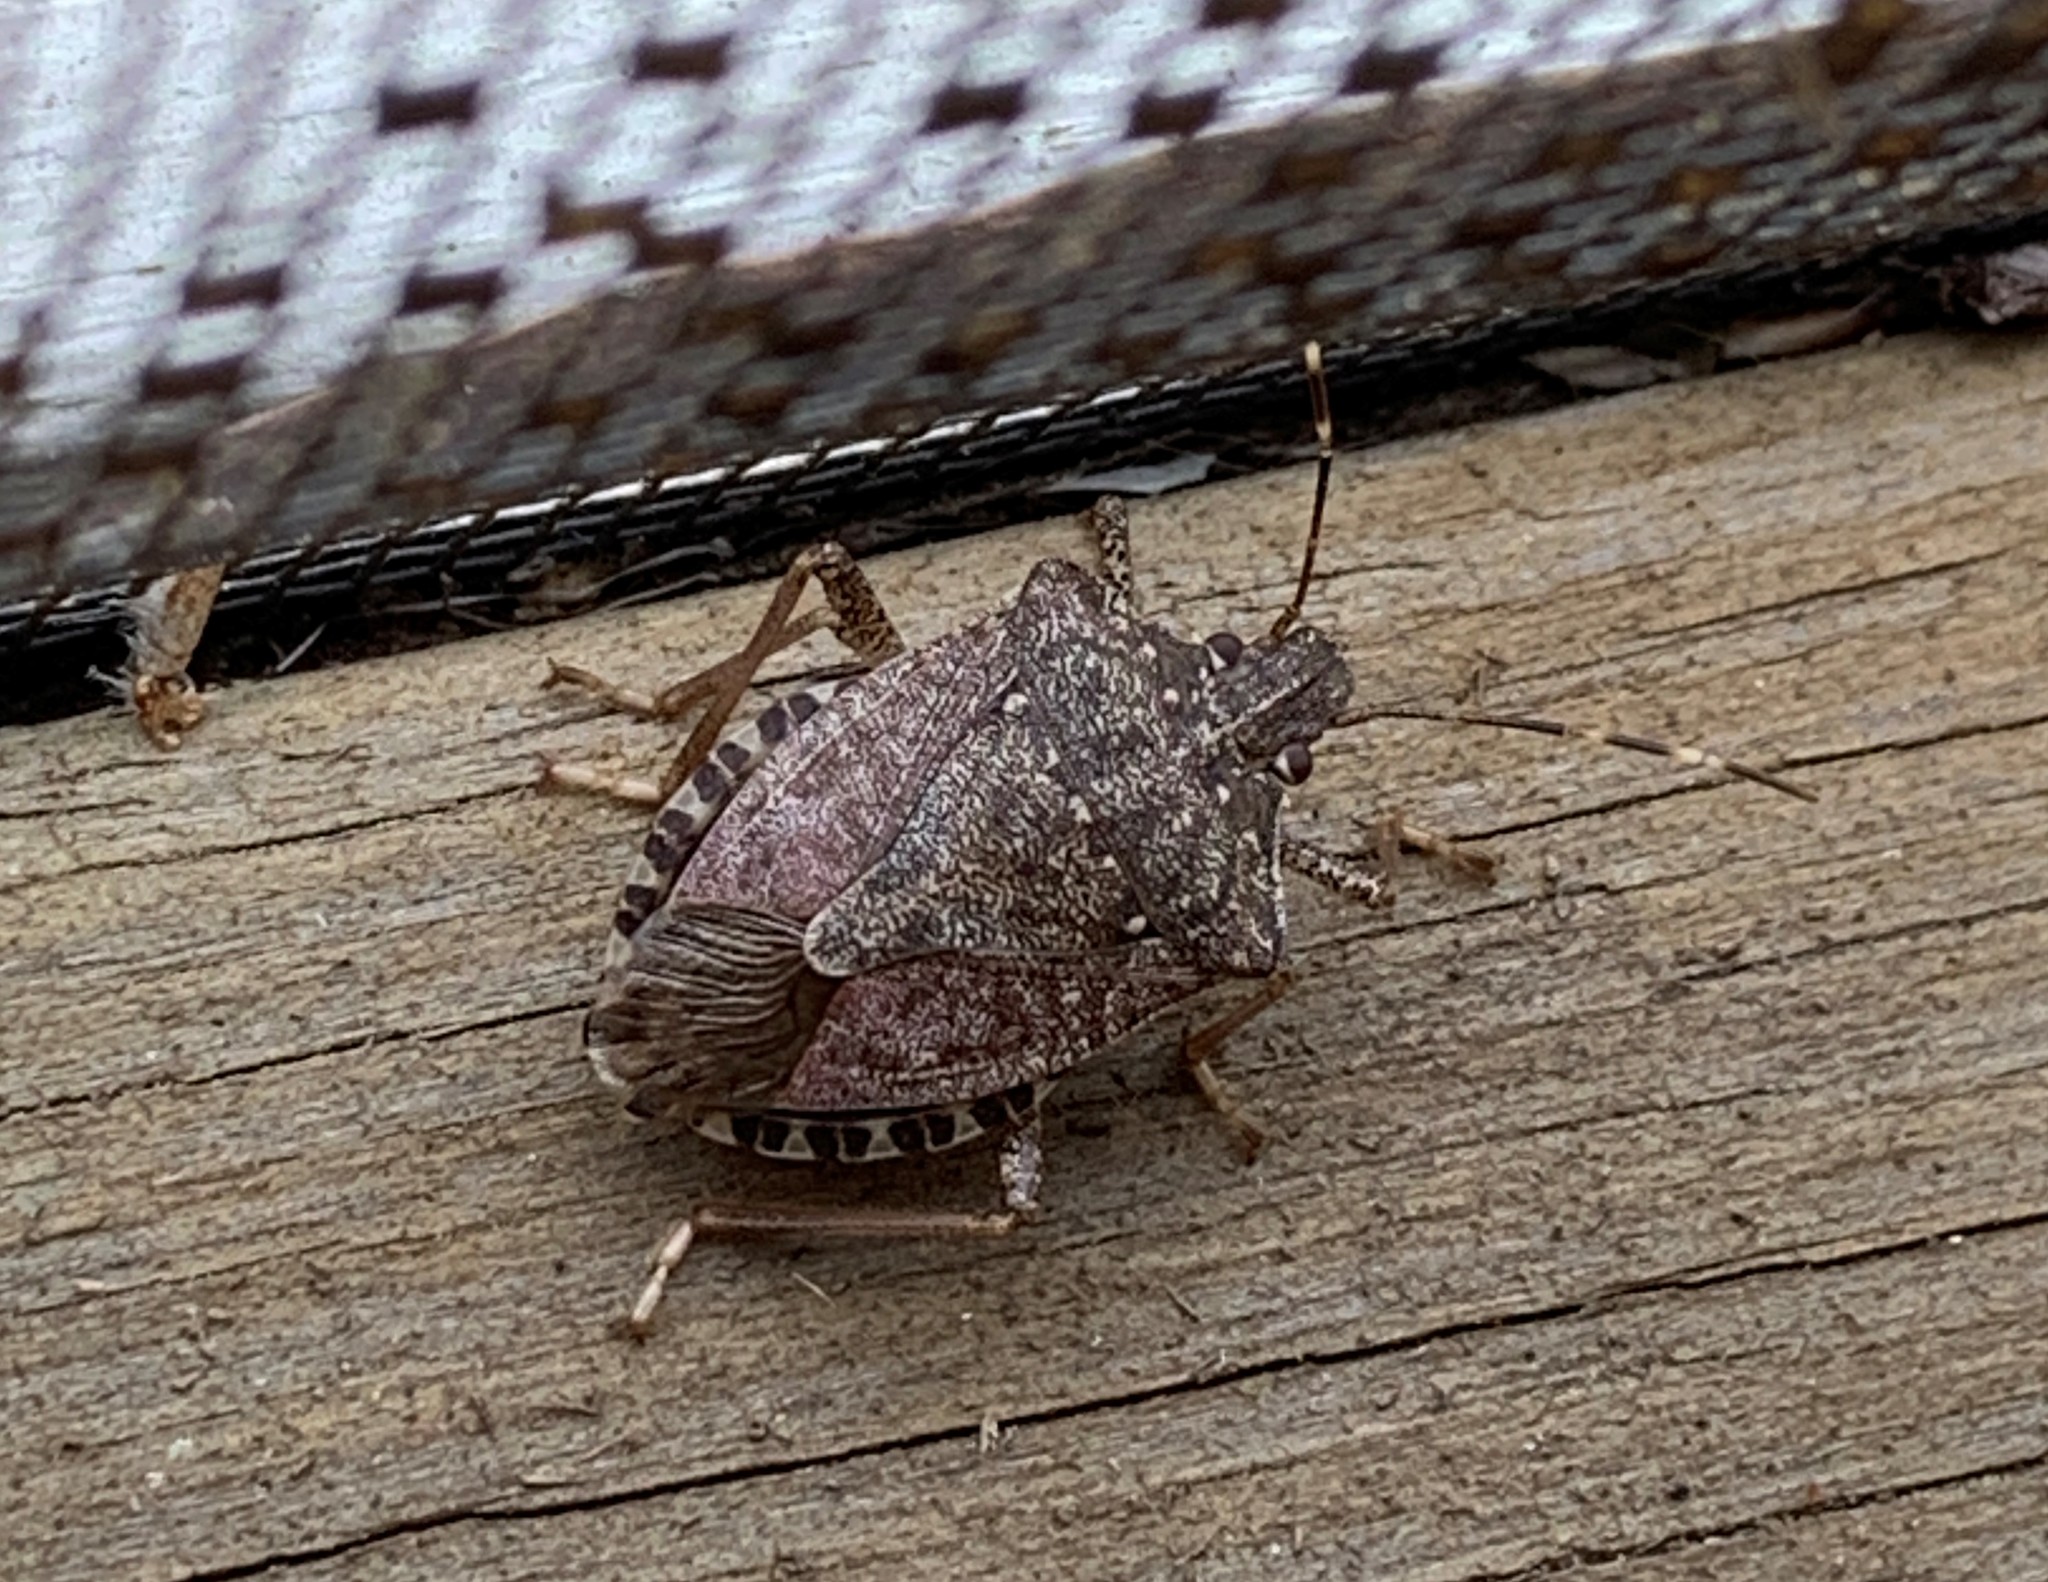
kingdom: Animalia
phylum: Arthropoda
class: Insecta
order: Hemiptera
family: Pentatomidae
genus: Halyomorpha
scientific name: Halyomorpha halys
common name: Brown marmorated stink bug
